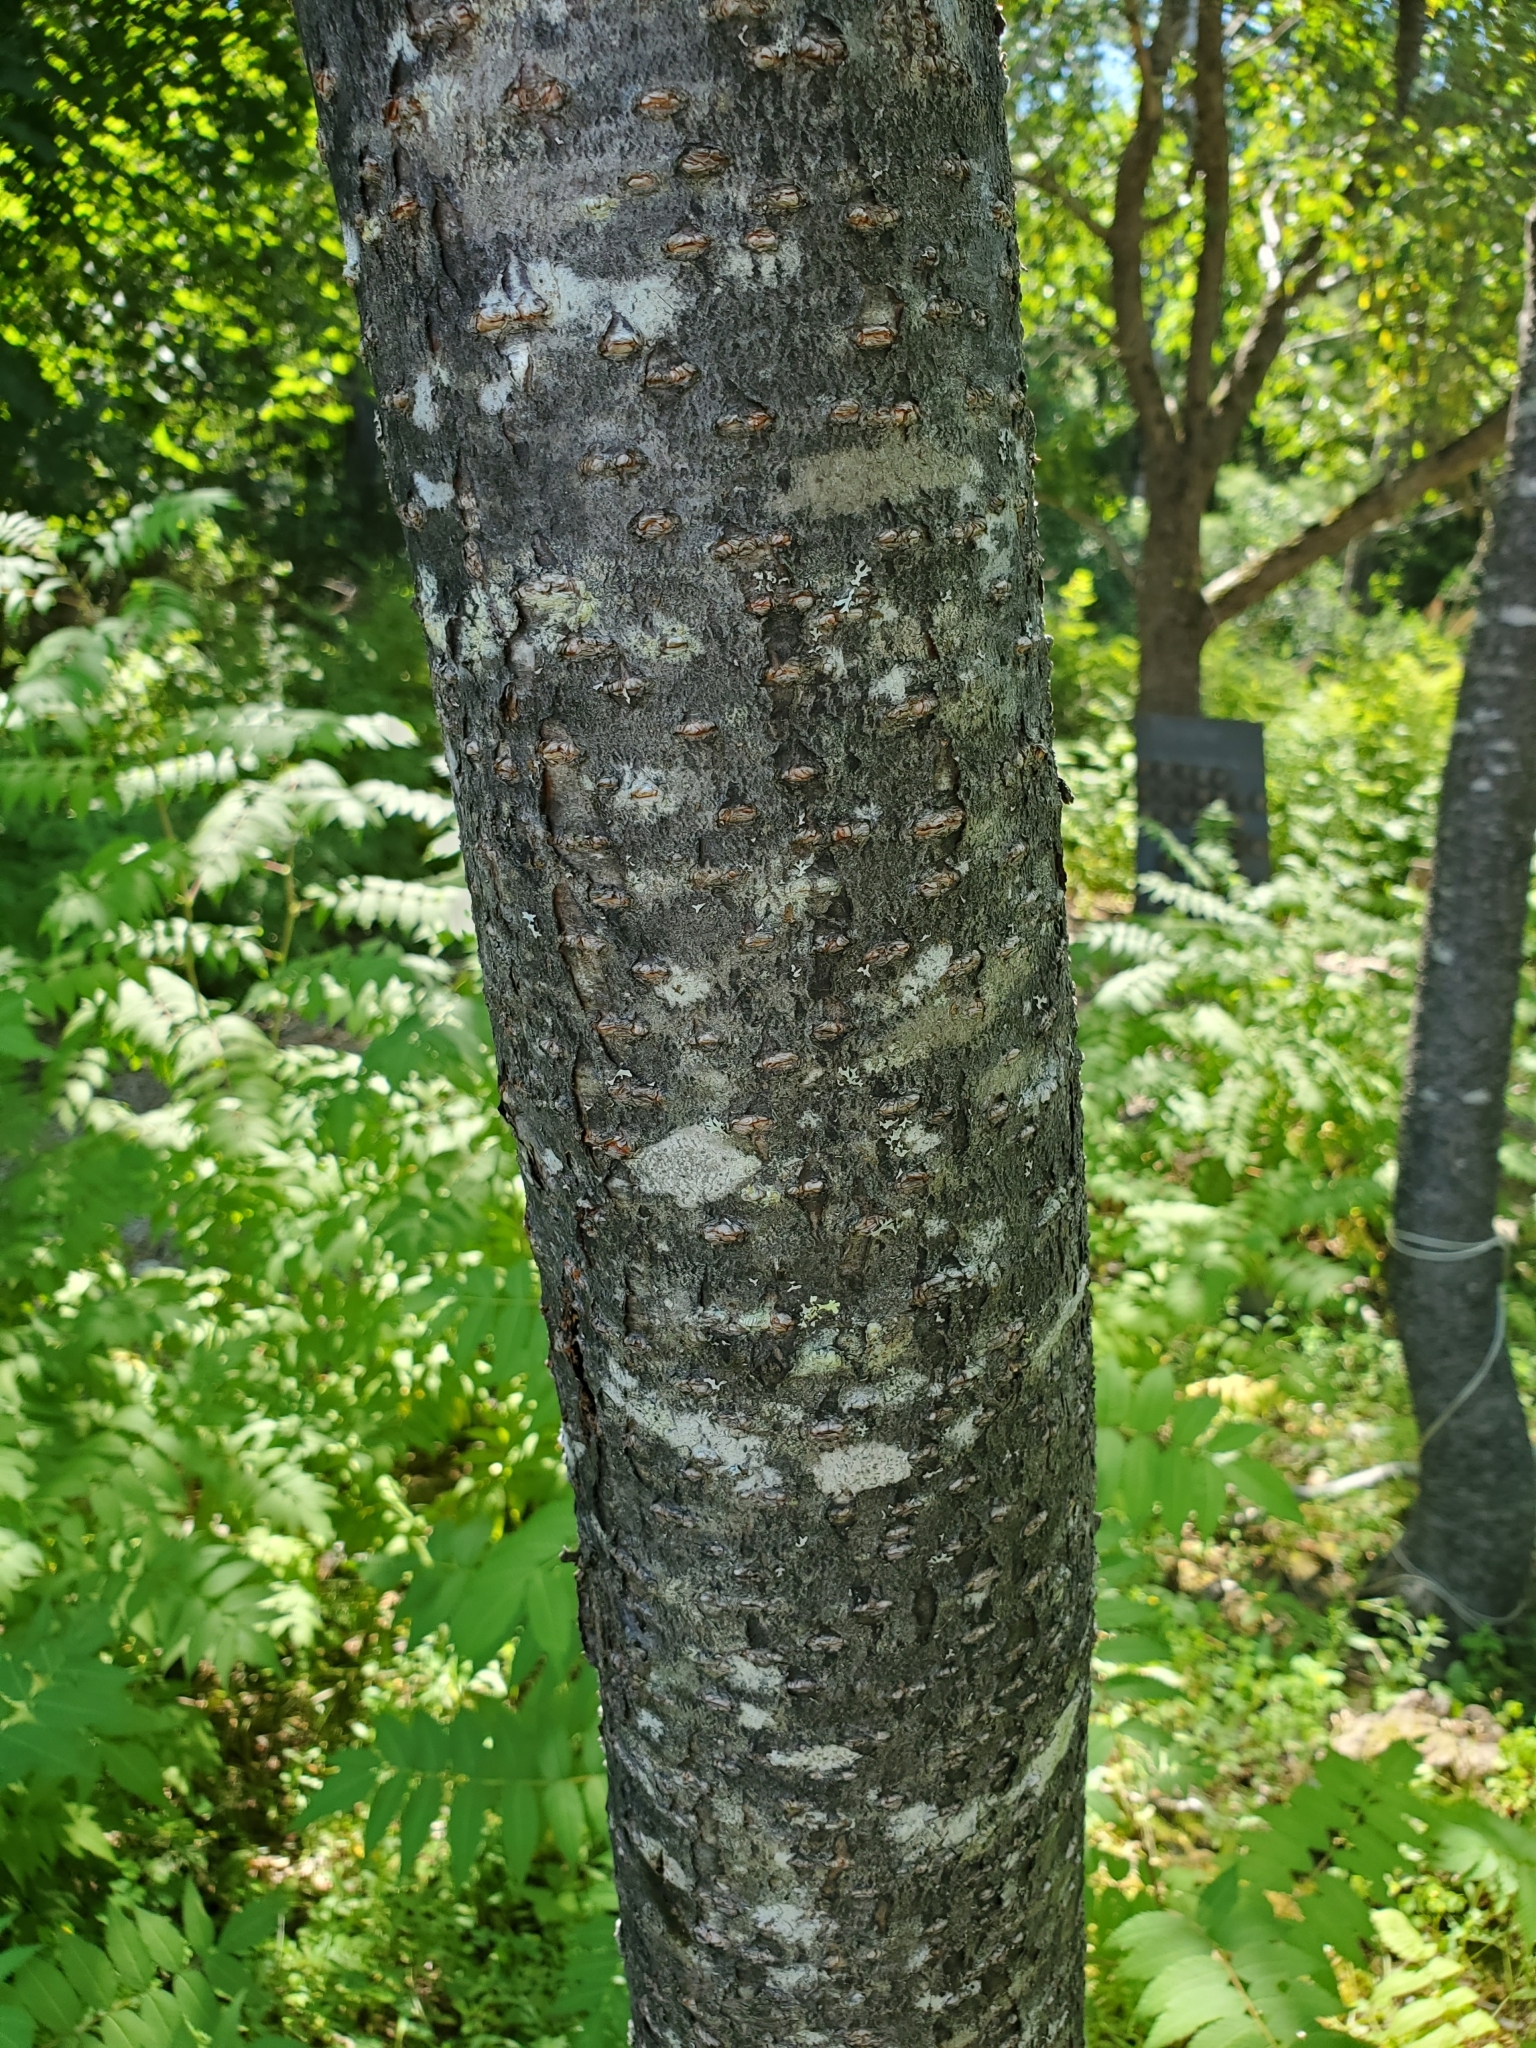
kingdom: Plantae
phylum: Tracheophyta
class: Magnoliopsida
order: Rosales
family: Rosaceae
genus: Sorbaria
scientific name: Sorbaria sorbifolia
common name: False spiraea
